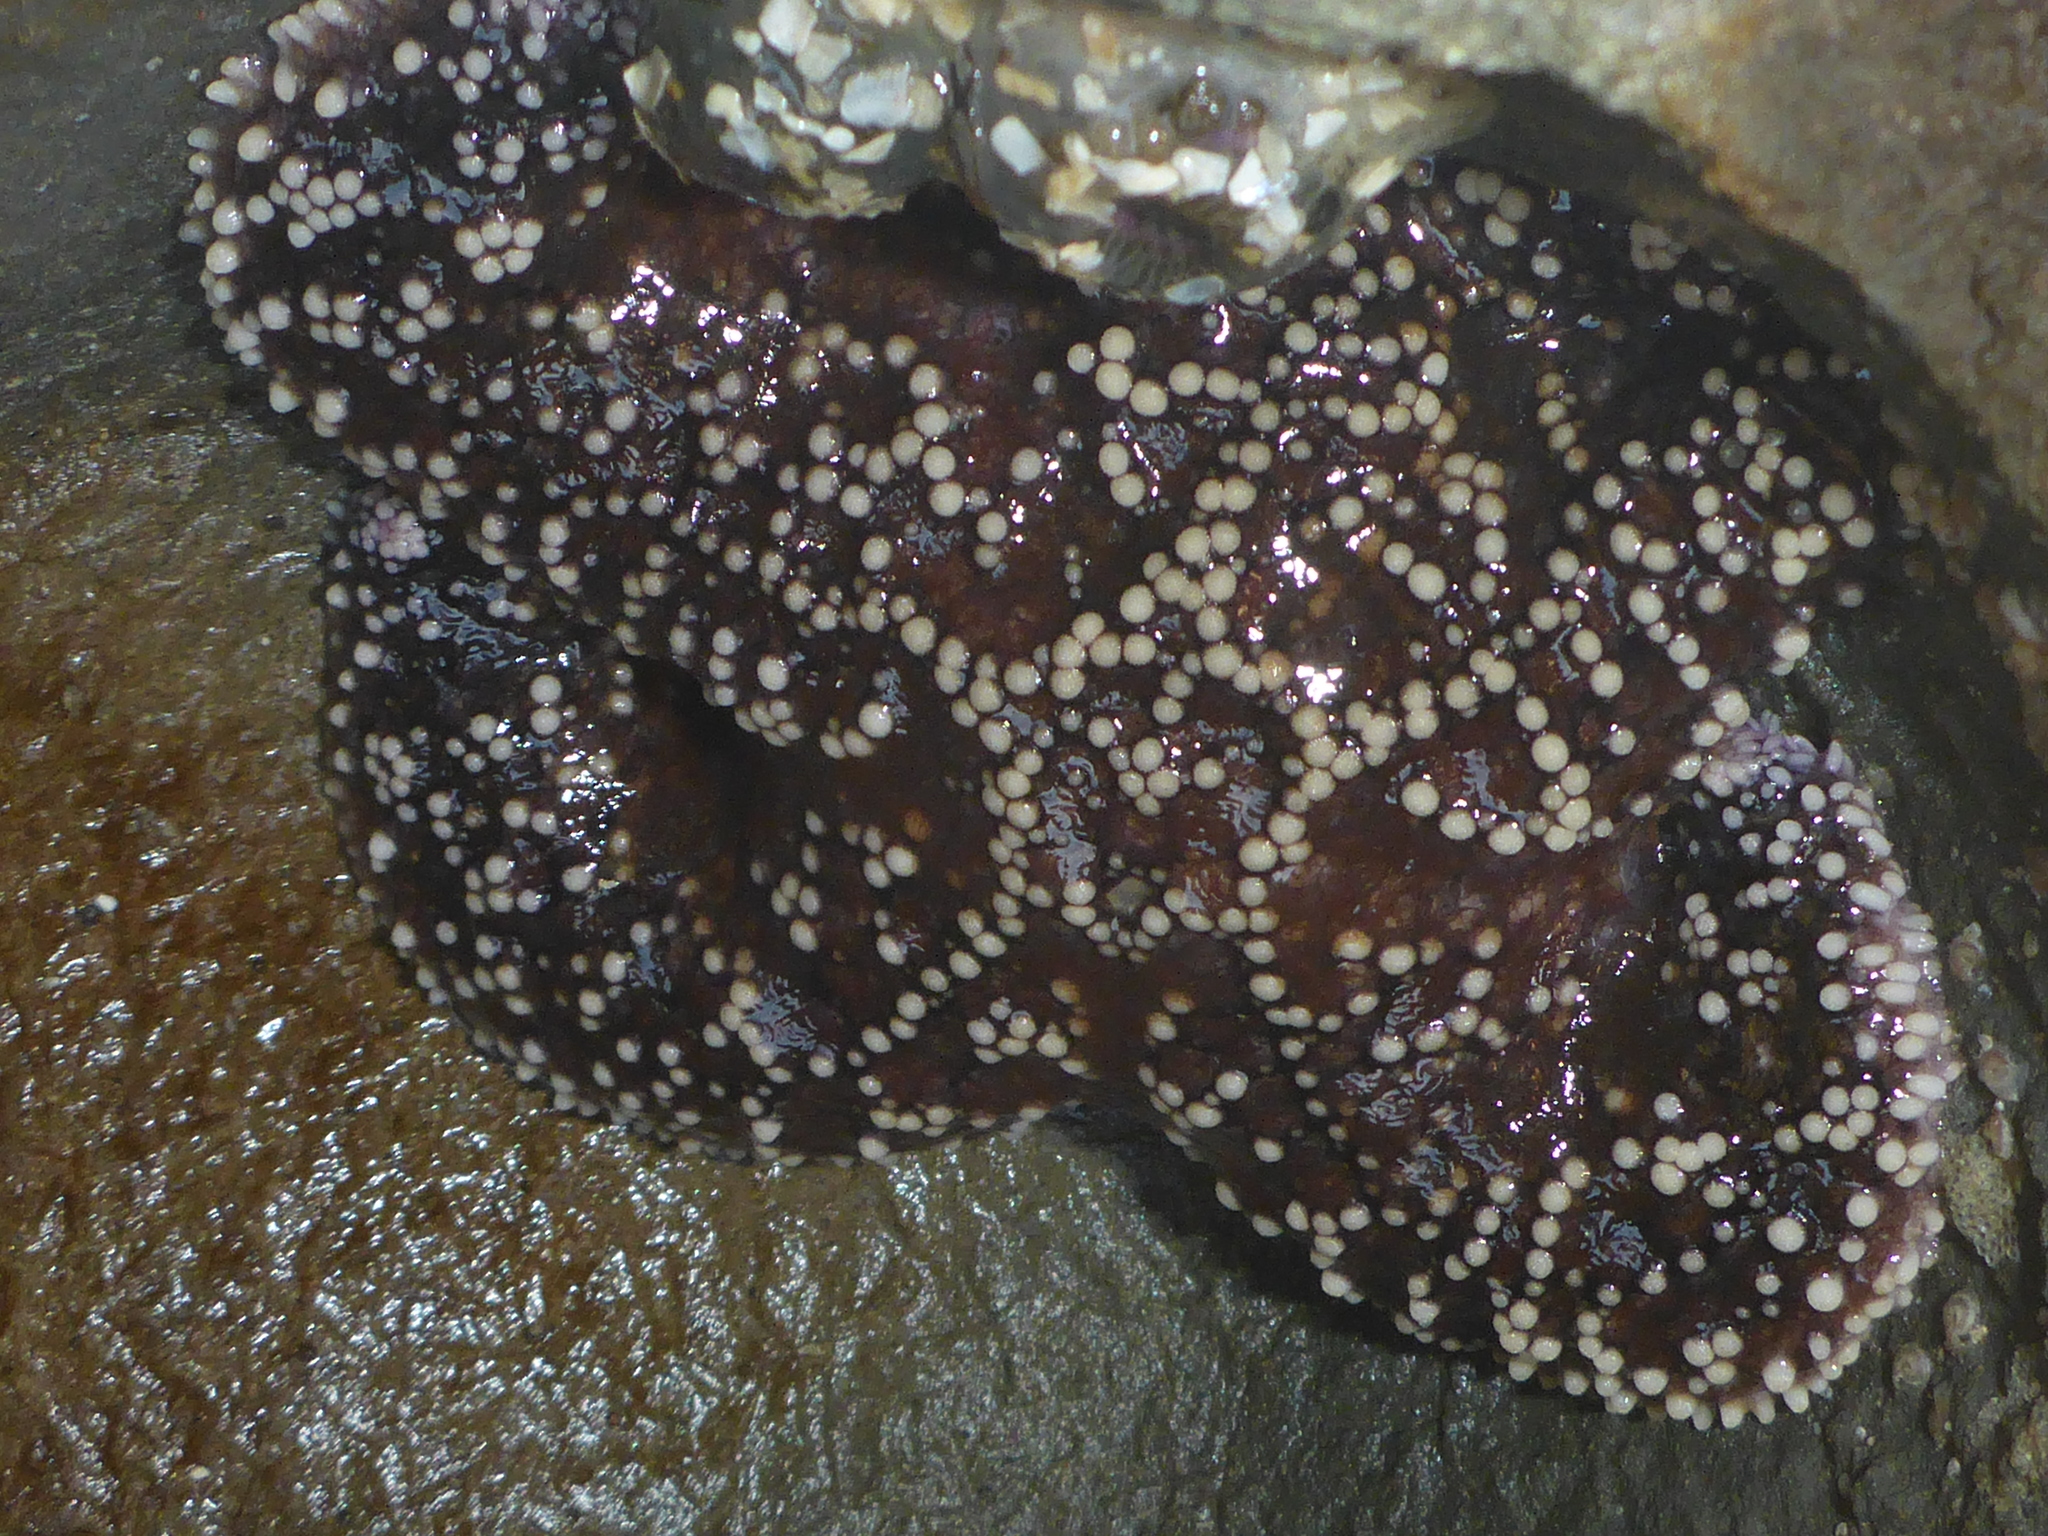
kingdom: Animalia
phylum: Echinodermata
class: Asteroidea
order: Forcipulatida
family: Asteriidae
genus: Pisaster
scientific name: Pisaster ochraceus
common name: Ochre stars
